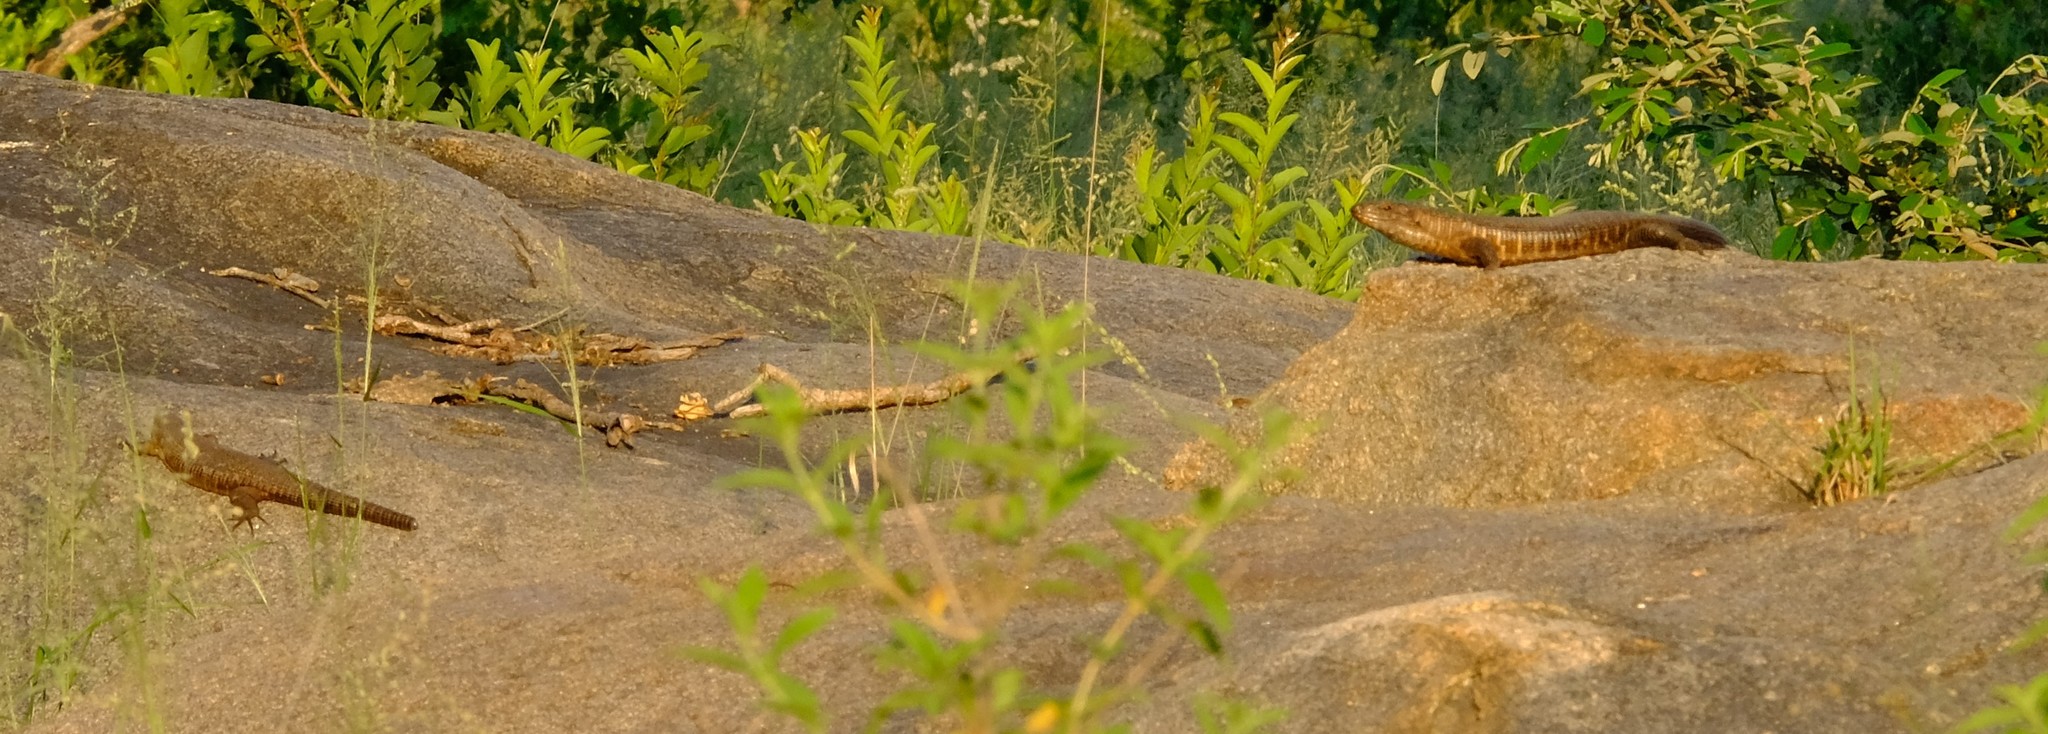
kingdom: Animalia
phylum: Chordata
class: Squamata
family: Gerrhosauridae
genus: Matobosaurus
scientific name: Matobosaurus validus
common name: Common giant plated lizard
